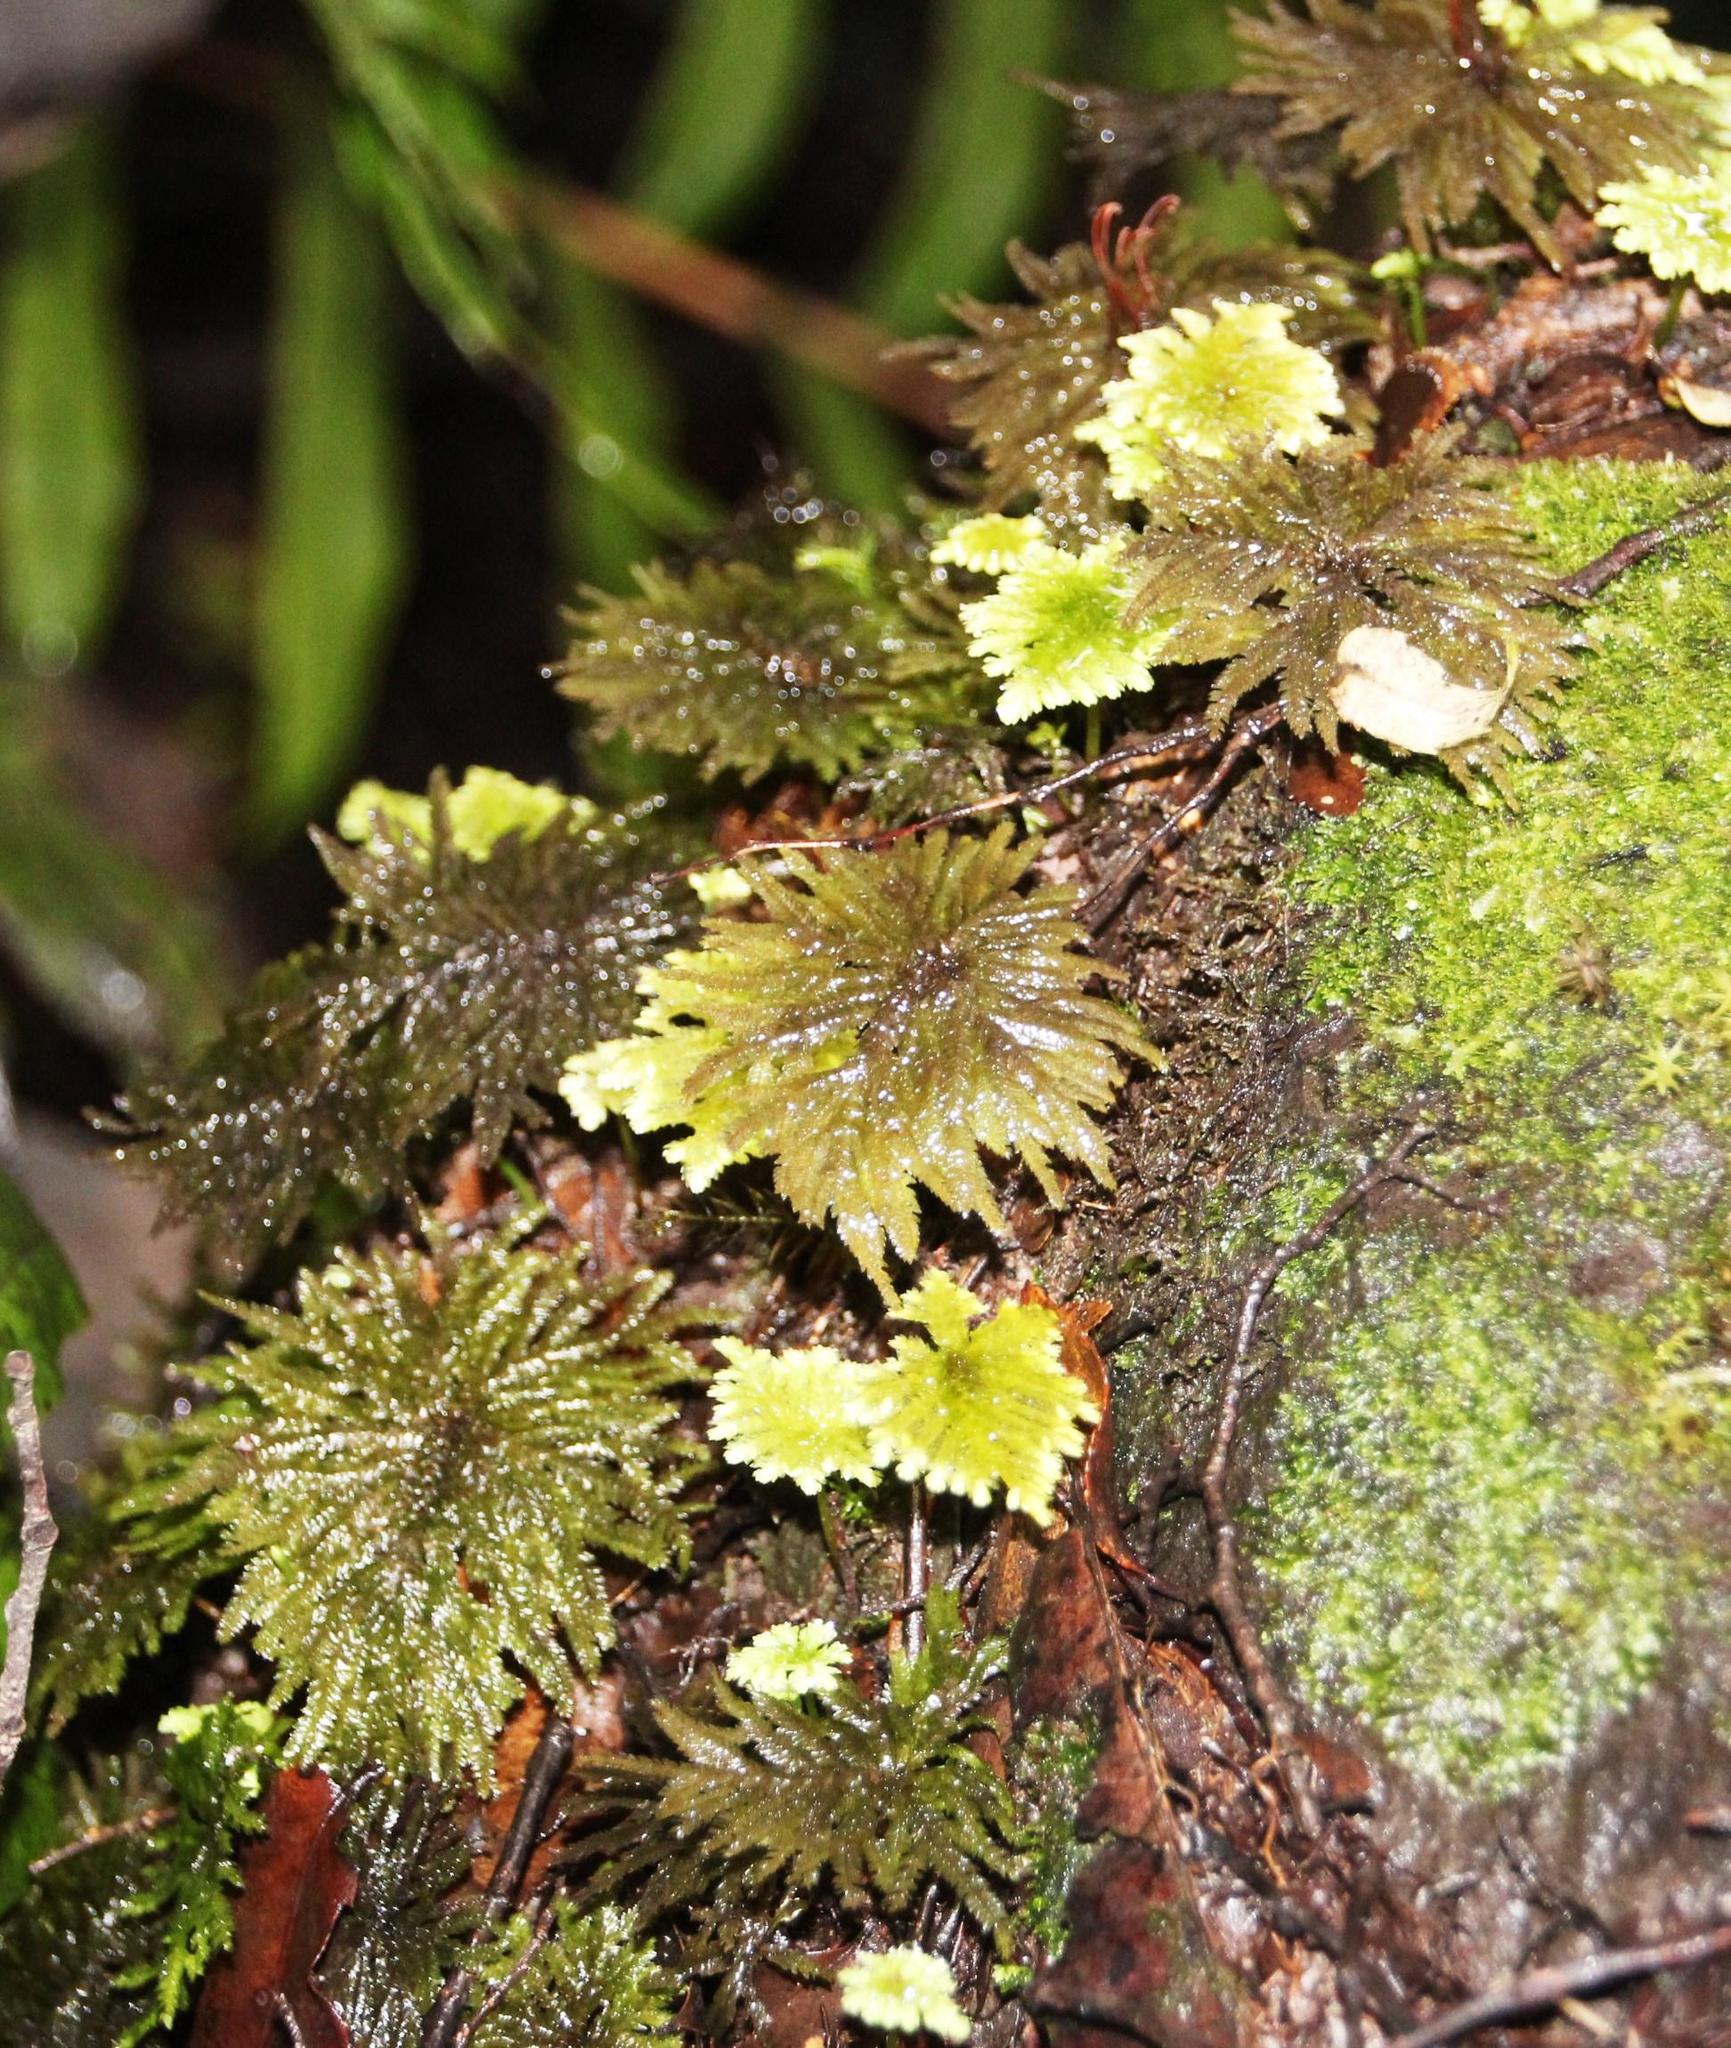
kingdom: Plantae
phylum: Bryophyta
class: Bryopsida
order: Hypopterygiales
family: Hypopterygiaceae
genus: Arbusculohypopterygium
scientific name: Arbusculohypopterygium arbuscula
